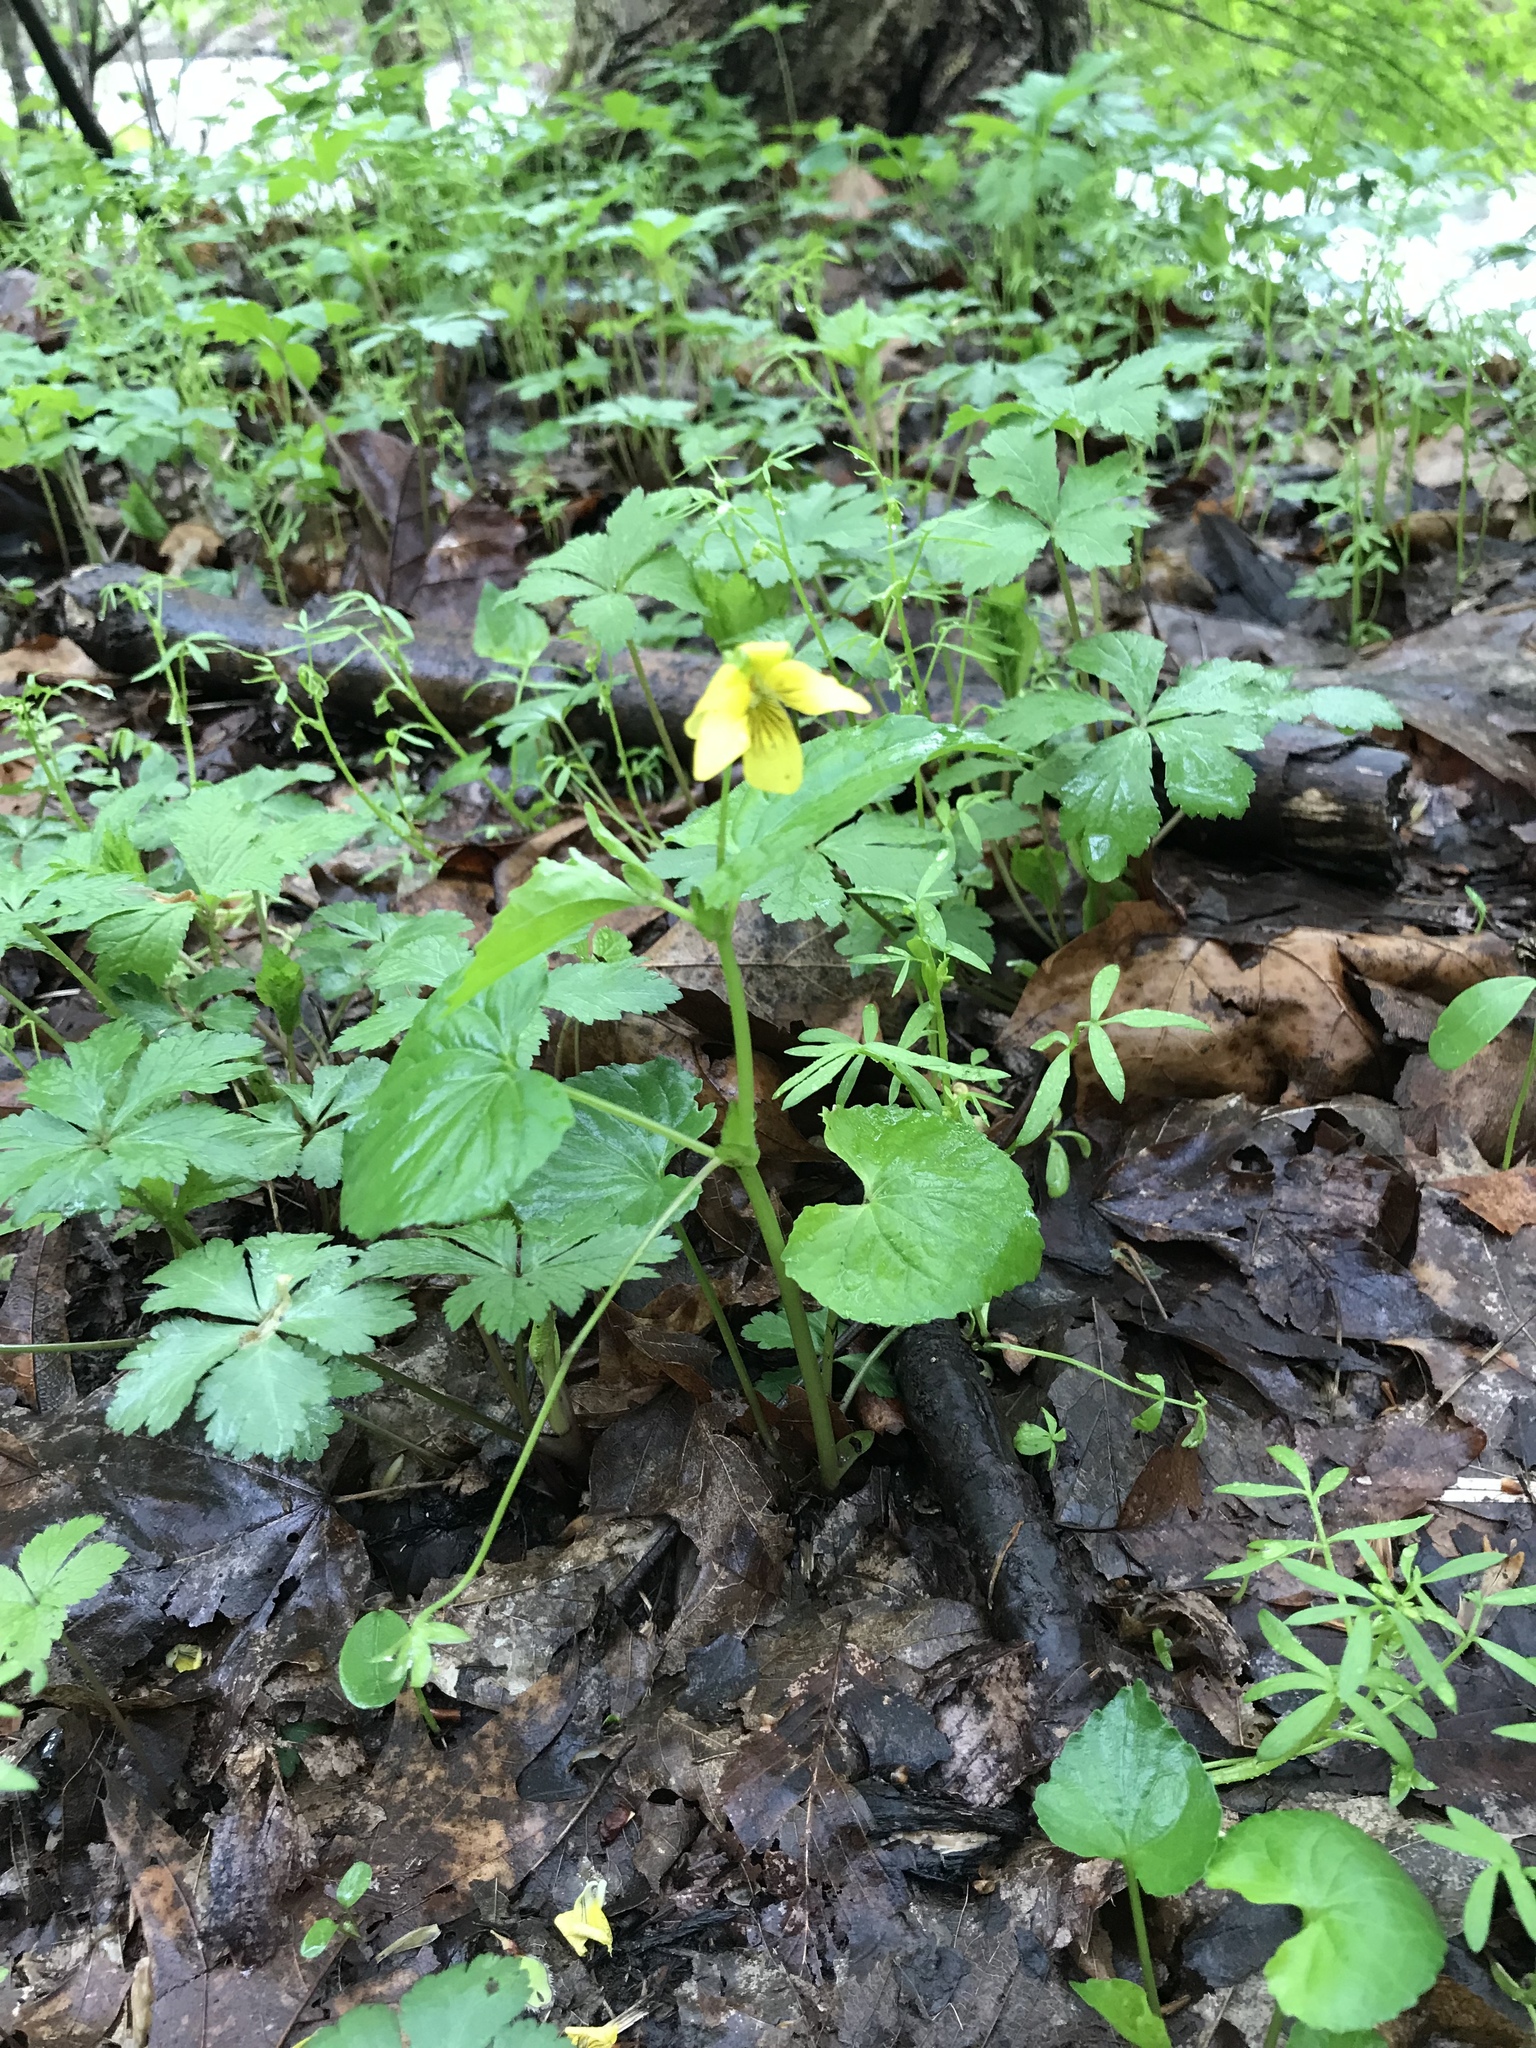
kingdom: Plantae
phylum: Tracheophyta
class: Magnoliopsida
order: Malpighiales
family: Violaceae
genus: Viola
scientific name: Viola eriocarpa
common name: Smooth yellow violet
